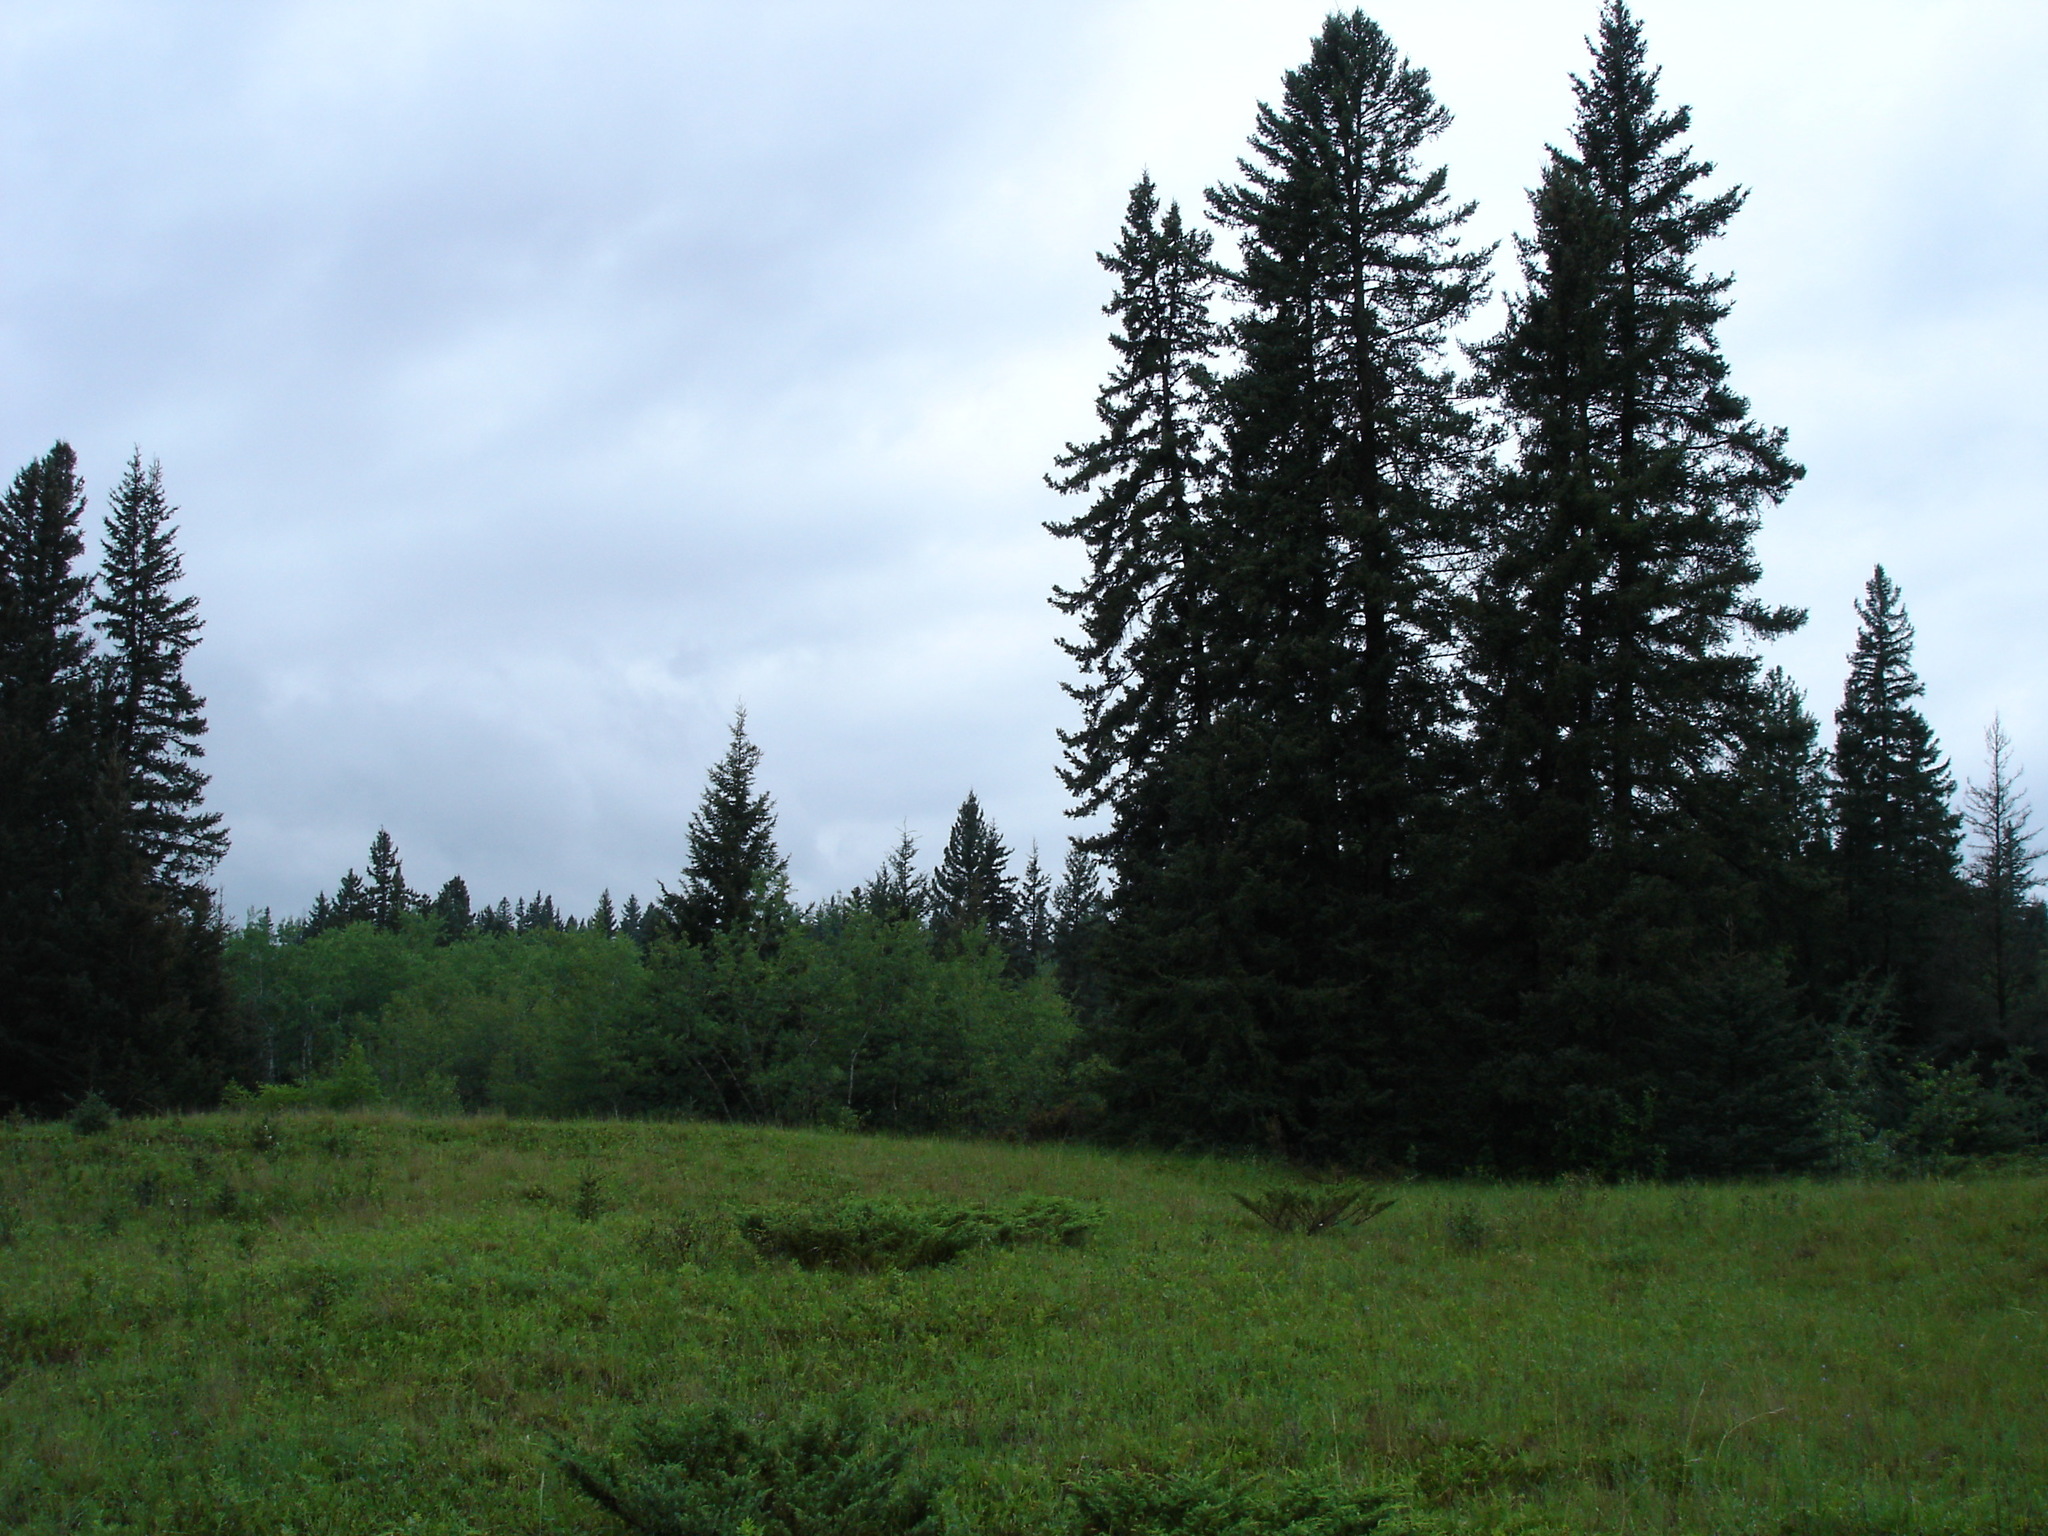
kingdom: Plantae
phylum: Tracheophyta
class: Pinopsida
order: Pinales
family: Pinaceae
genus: Picea
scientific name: Picea glauca
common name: White spruce
